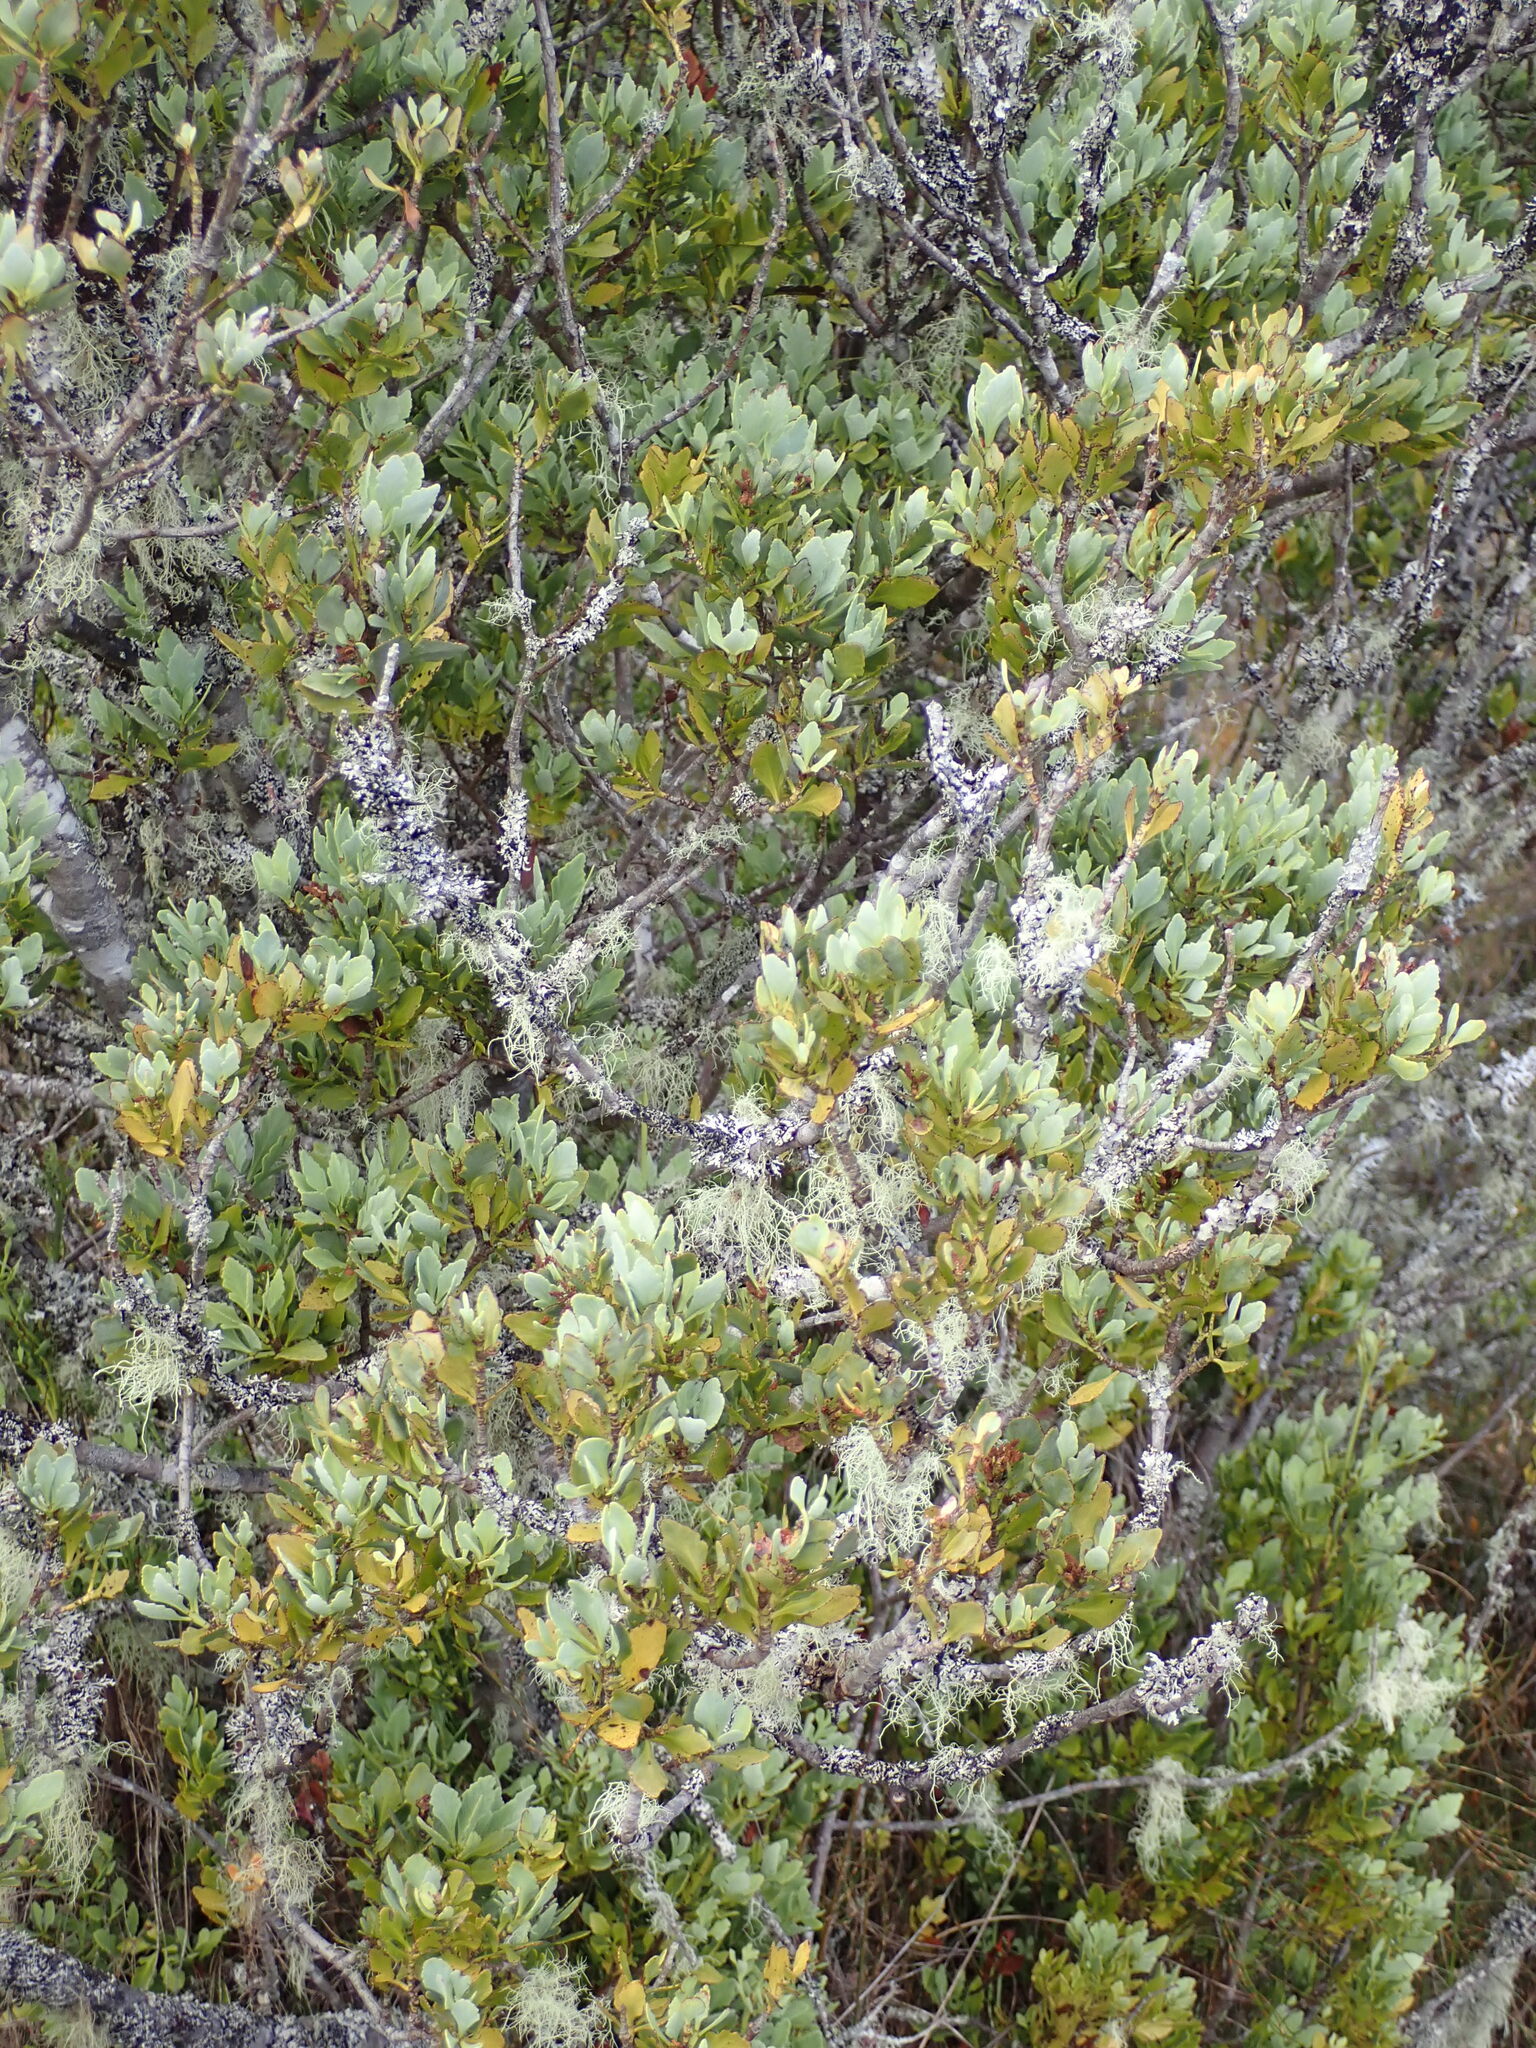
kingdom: Plantae
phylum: Tracheophyta
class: Pinopsida
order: Pinales
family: Phyllocladaceae
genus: Phyllocladus
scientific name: Phyllocladus trichomanoides
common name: Celery pine
